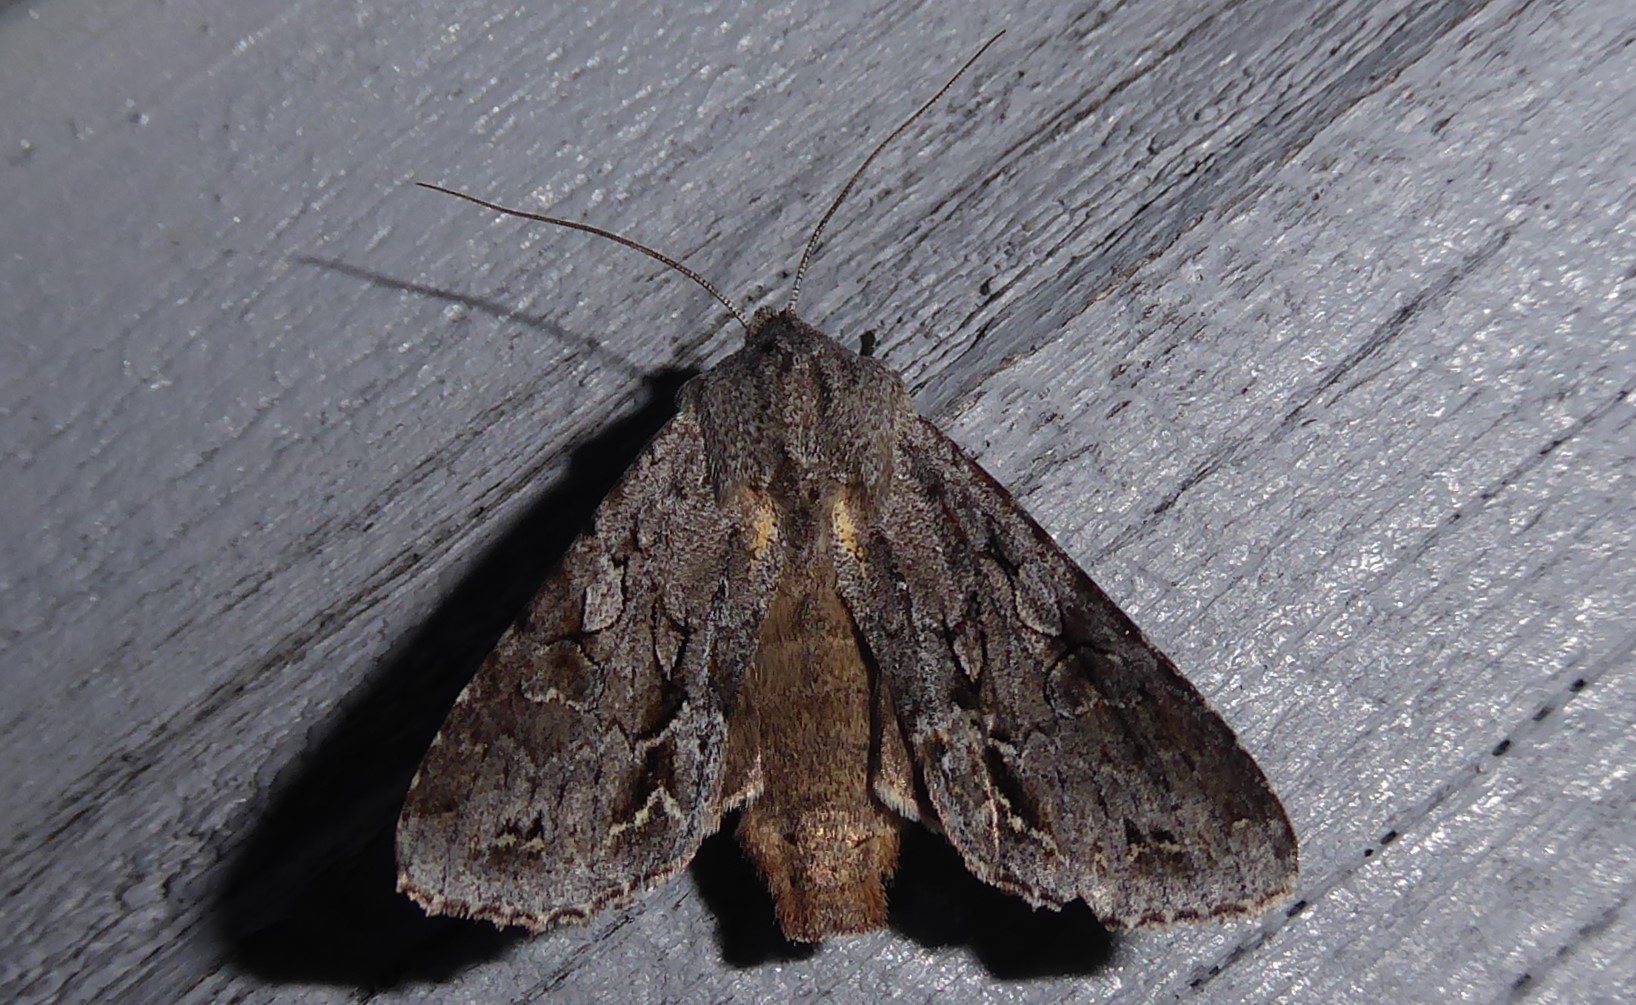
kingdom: Animalia
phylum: Arthropoda
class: Insecta
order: Lepidoptera
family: Noctuidae
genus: Ichneutica
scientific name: Ichneutica
